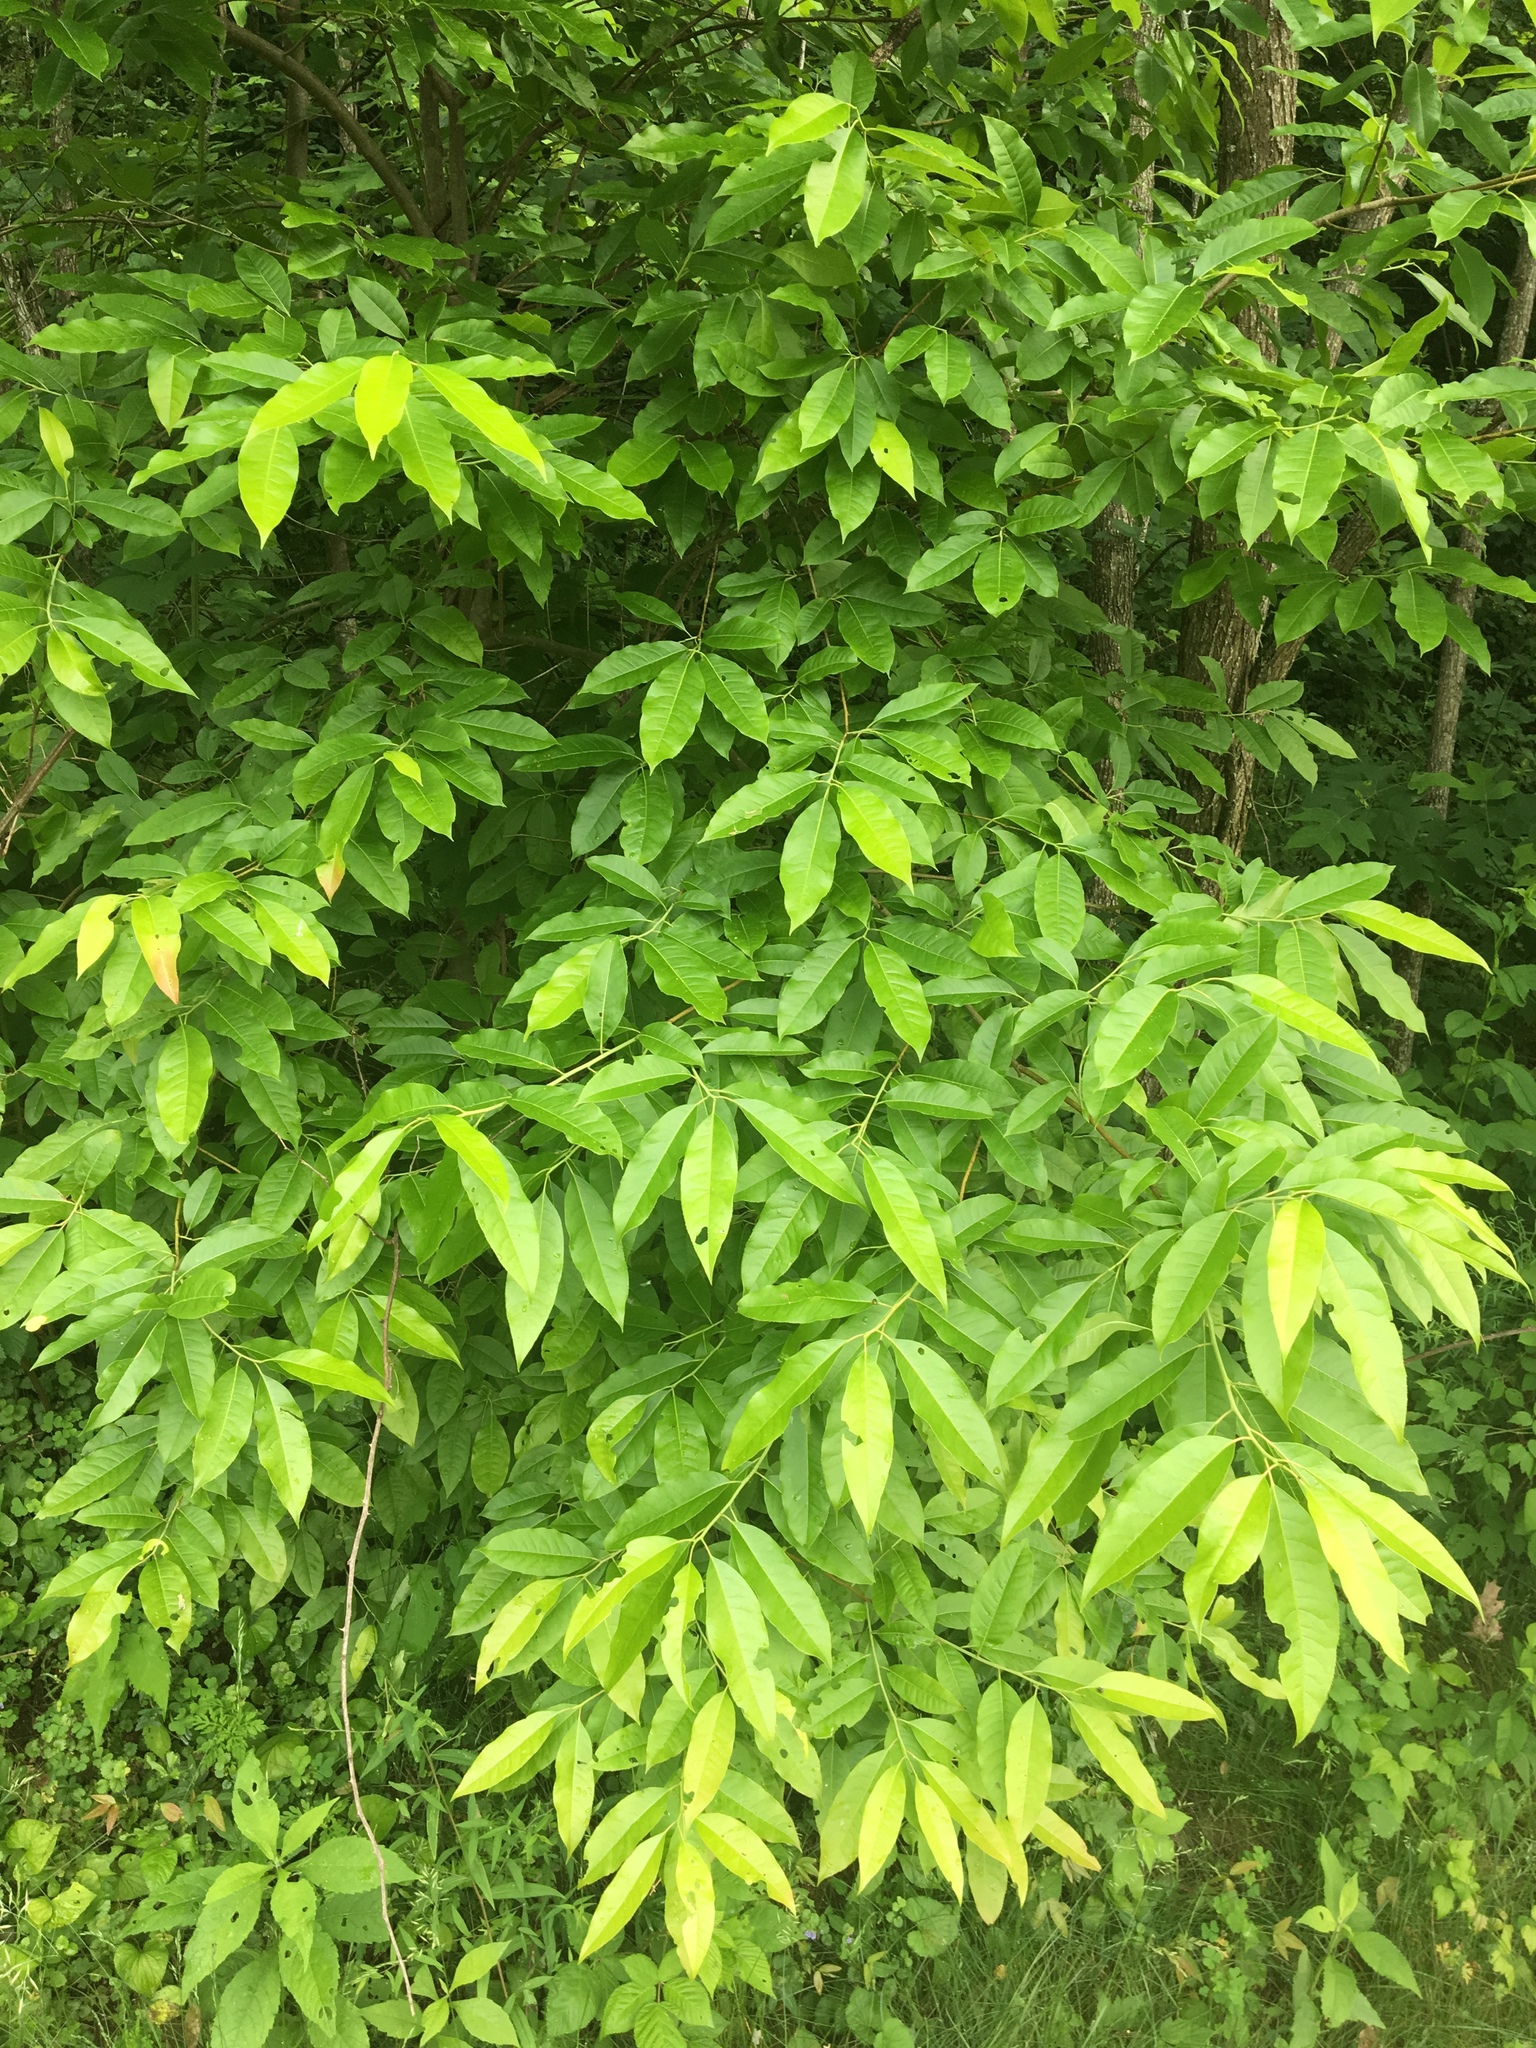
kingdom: Plantae
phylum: Tracheophyta
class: Magnoliopsida
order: Ericales
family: Ericaceae
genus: Oxydendrum
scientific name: Oxydendrum arboreum
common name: Sourwood
